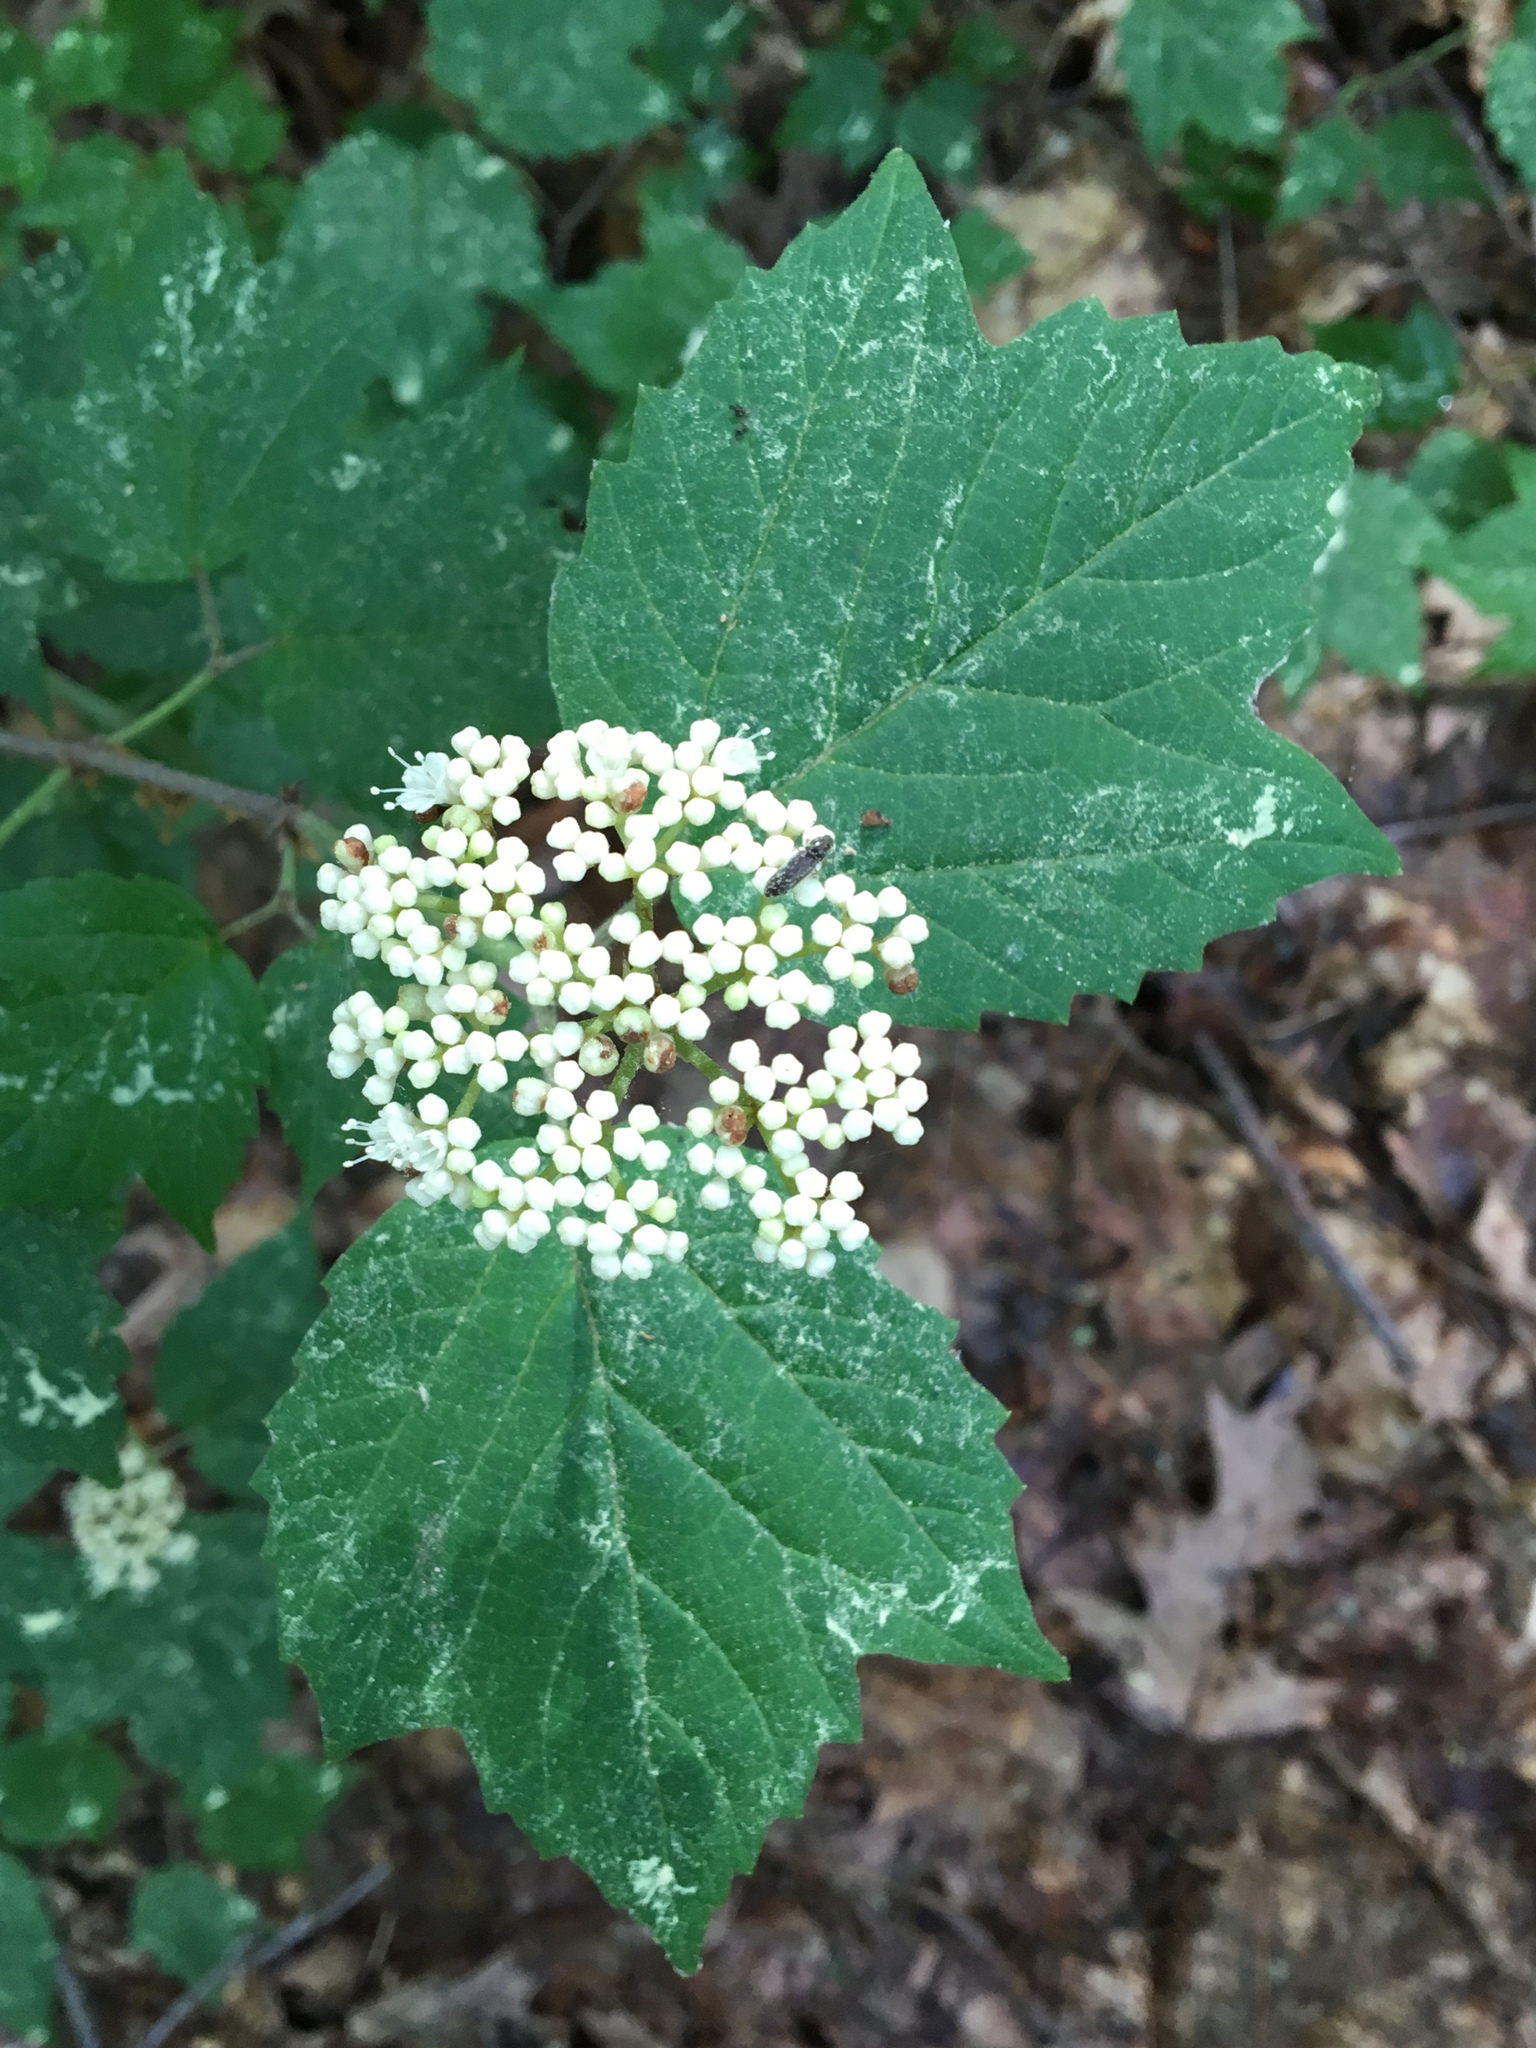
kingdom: Plantae
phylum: Tracheophyta
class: Magnoliopsida
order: Dipsacales
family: Viburnaceae
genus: Viburnum
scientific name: Viburnum acerifolium
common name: Dockmackie
